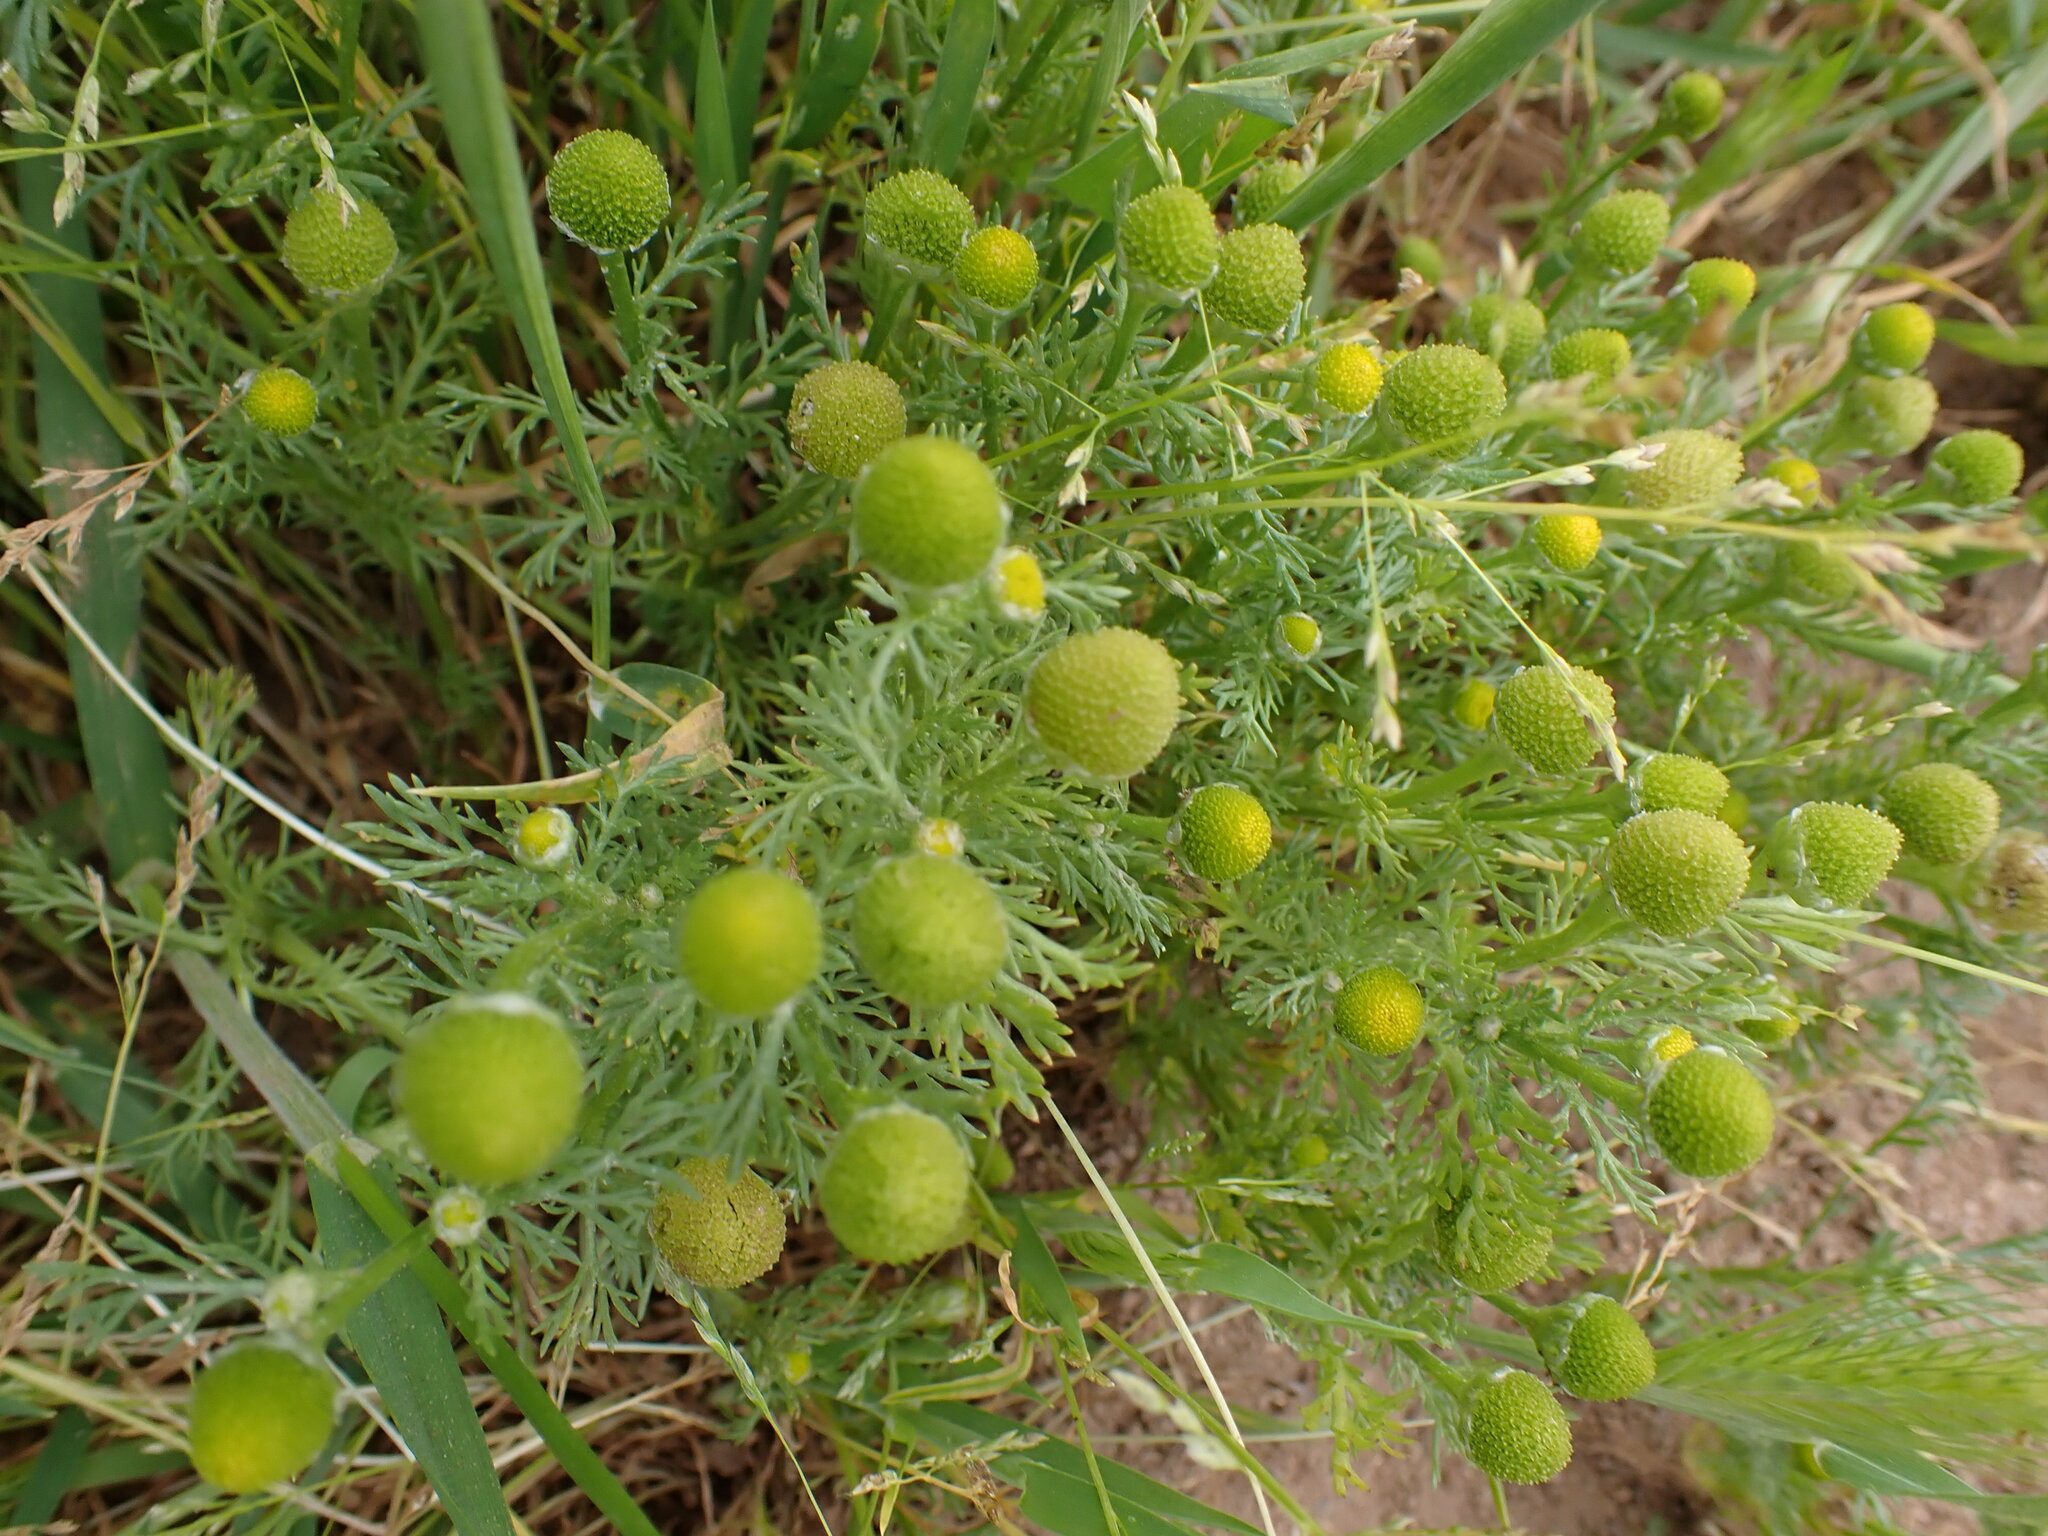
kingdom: Plantae
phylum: Tracheophyta
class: Magnoliopsida
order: Asterales
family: Asteraceae
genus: Matricaria
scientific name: Matricaria discoidea
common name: Disc mayweed
